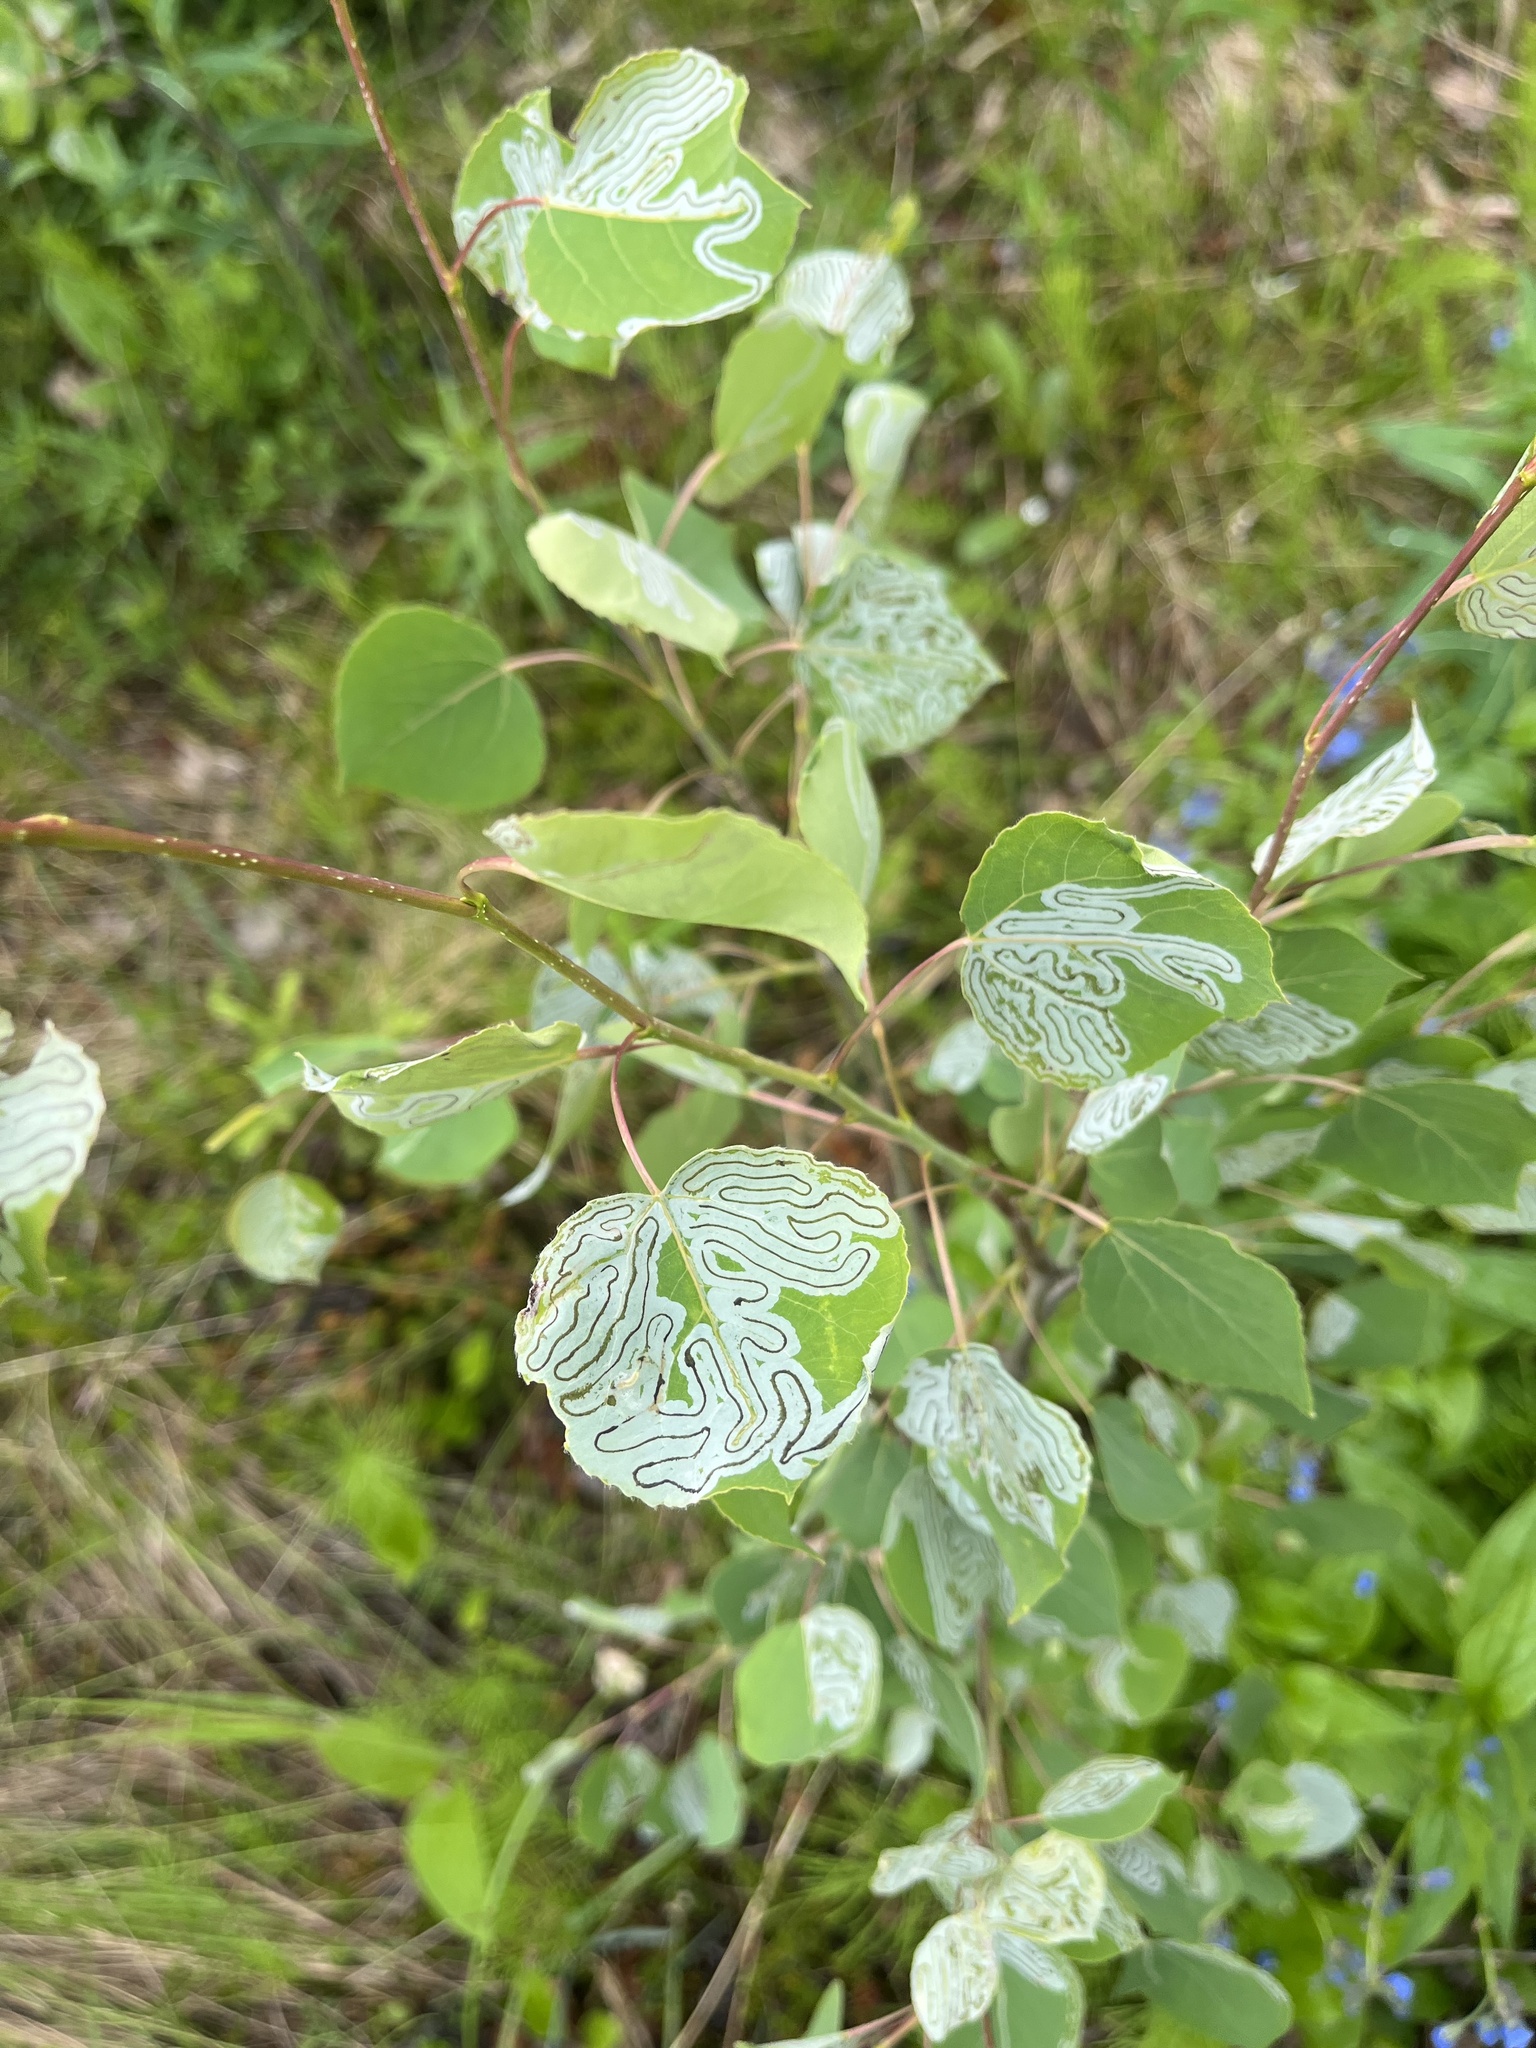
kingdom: Animalia
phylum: Arthropoda
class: Insecta
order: Lepidoptera
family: Gracillariidae
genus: Phyllocnistis
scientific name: Phyllocnistis populiella
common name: Aspen serpentine leafminer moth
